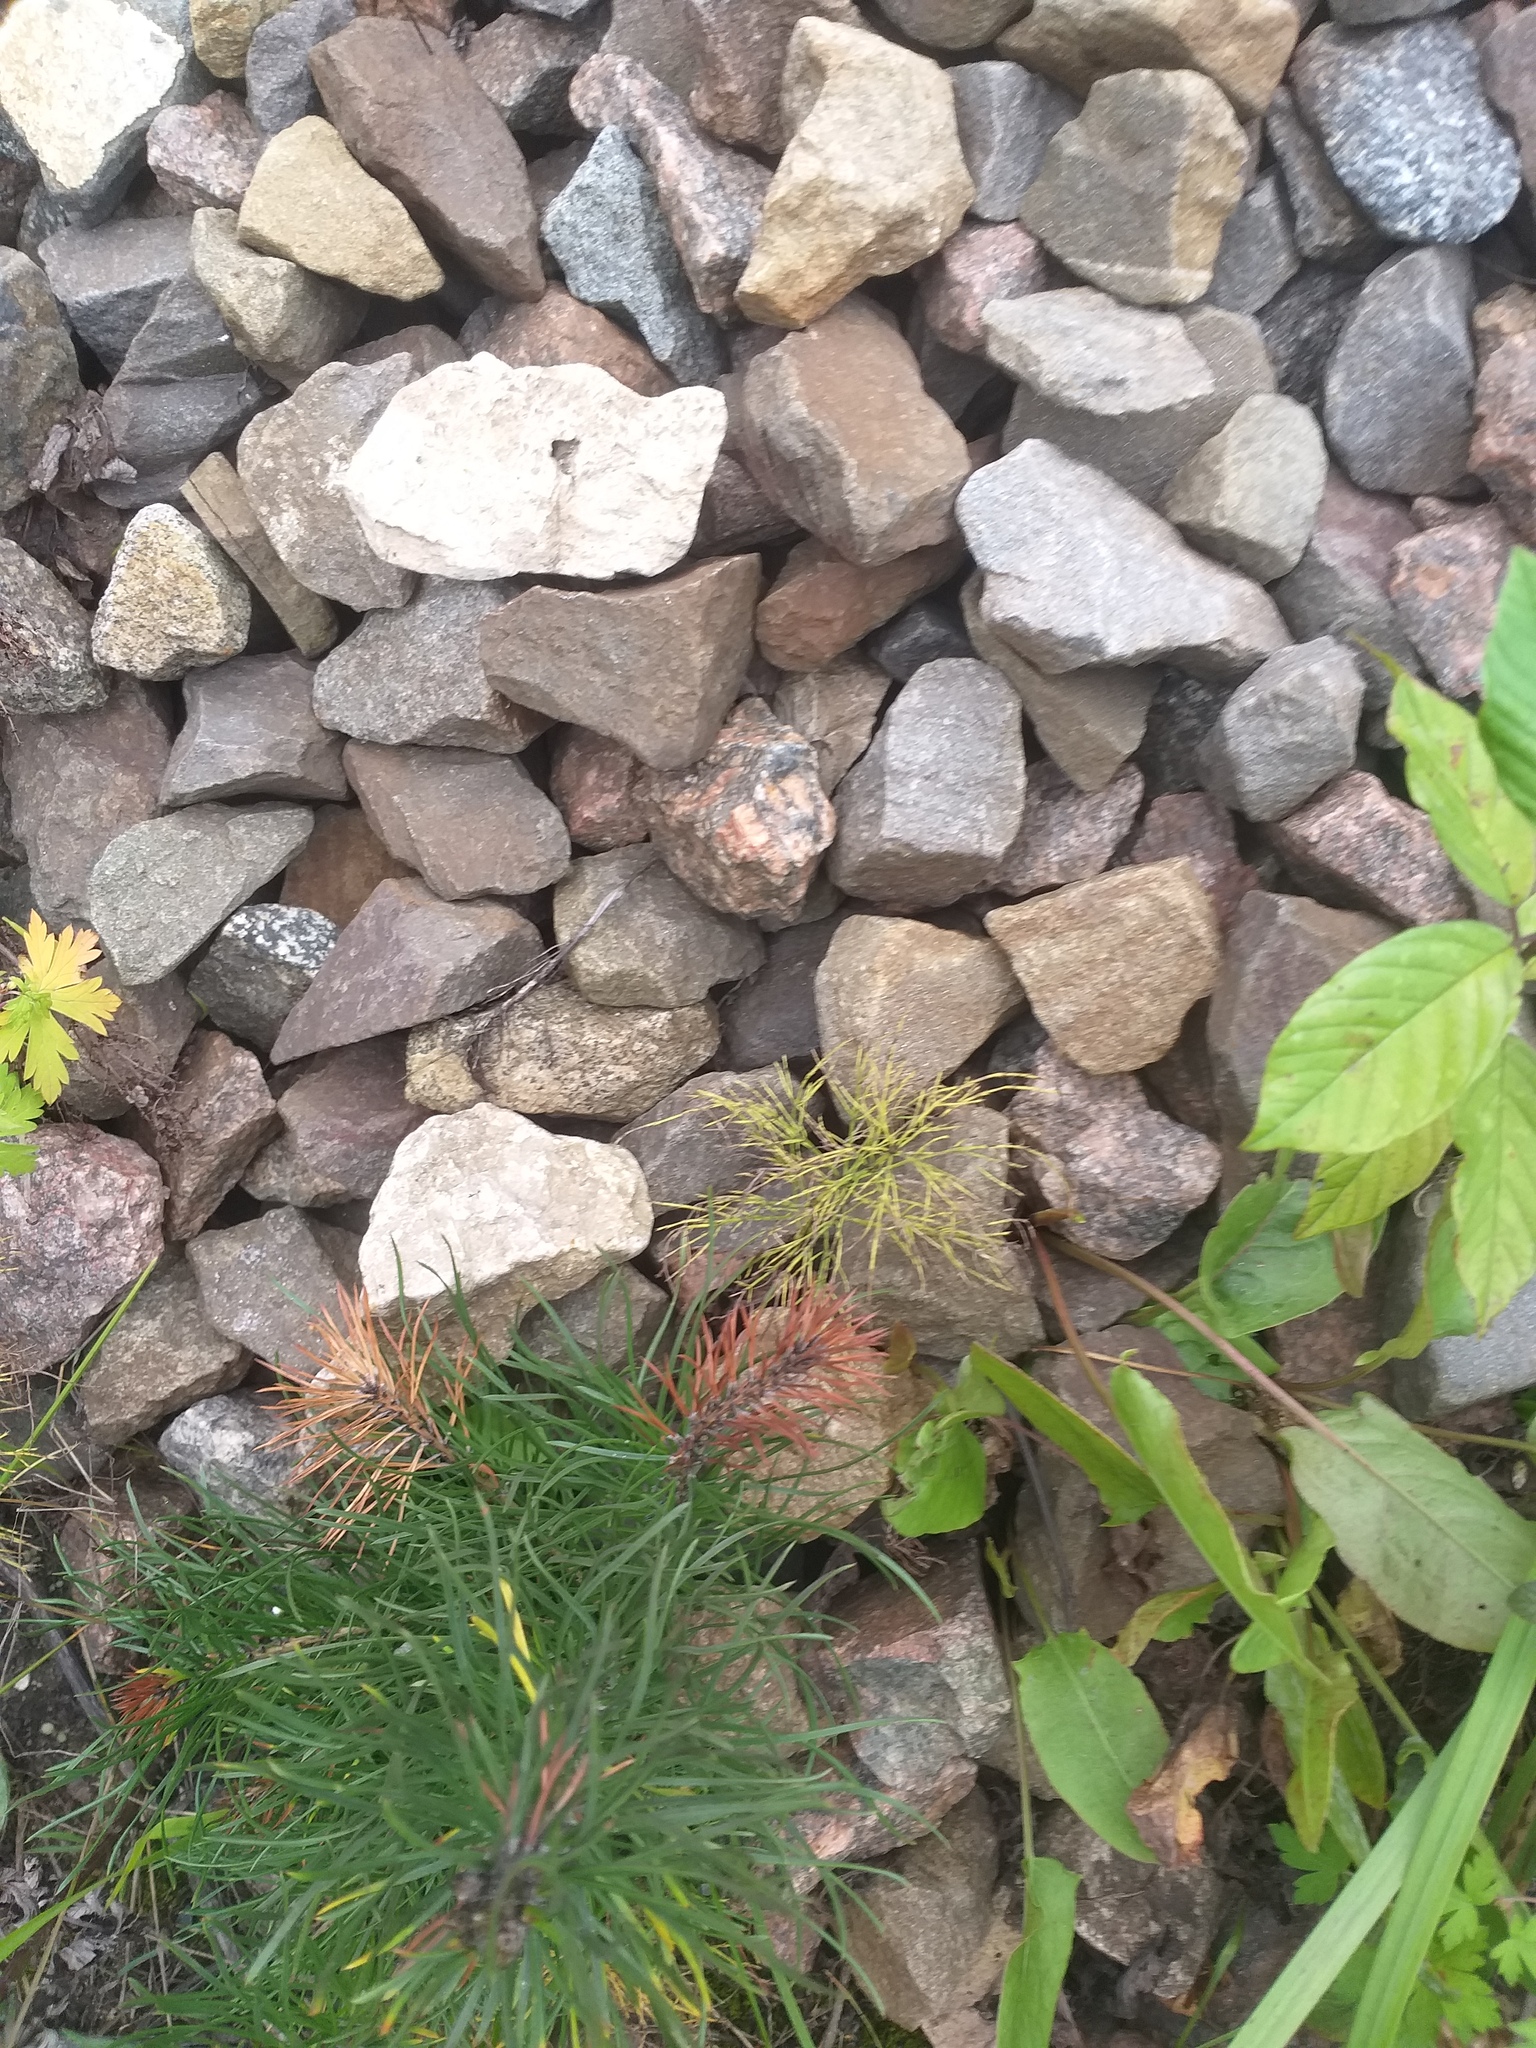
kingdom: Plantae
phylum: Tracheophyta
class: Polypodiopsida
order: Equisetales
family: Equisetaceae
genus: Equisetum
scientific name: Equisetum sylvaticum
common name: Wood horsetail
